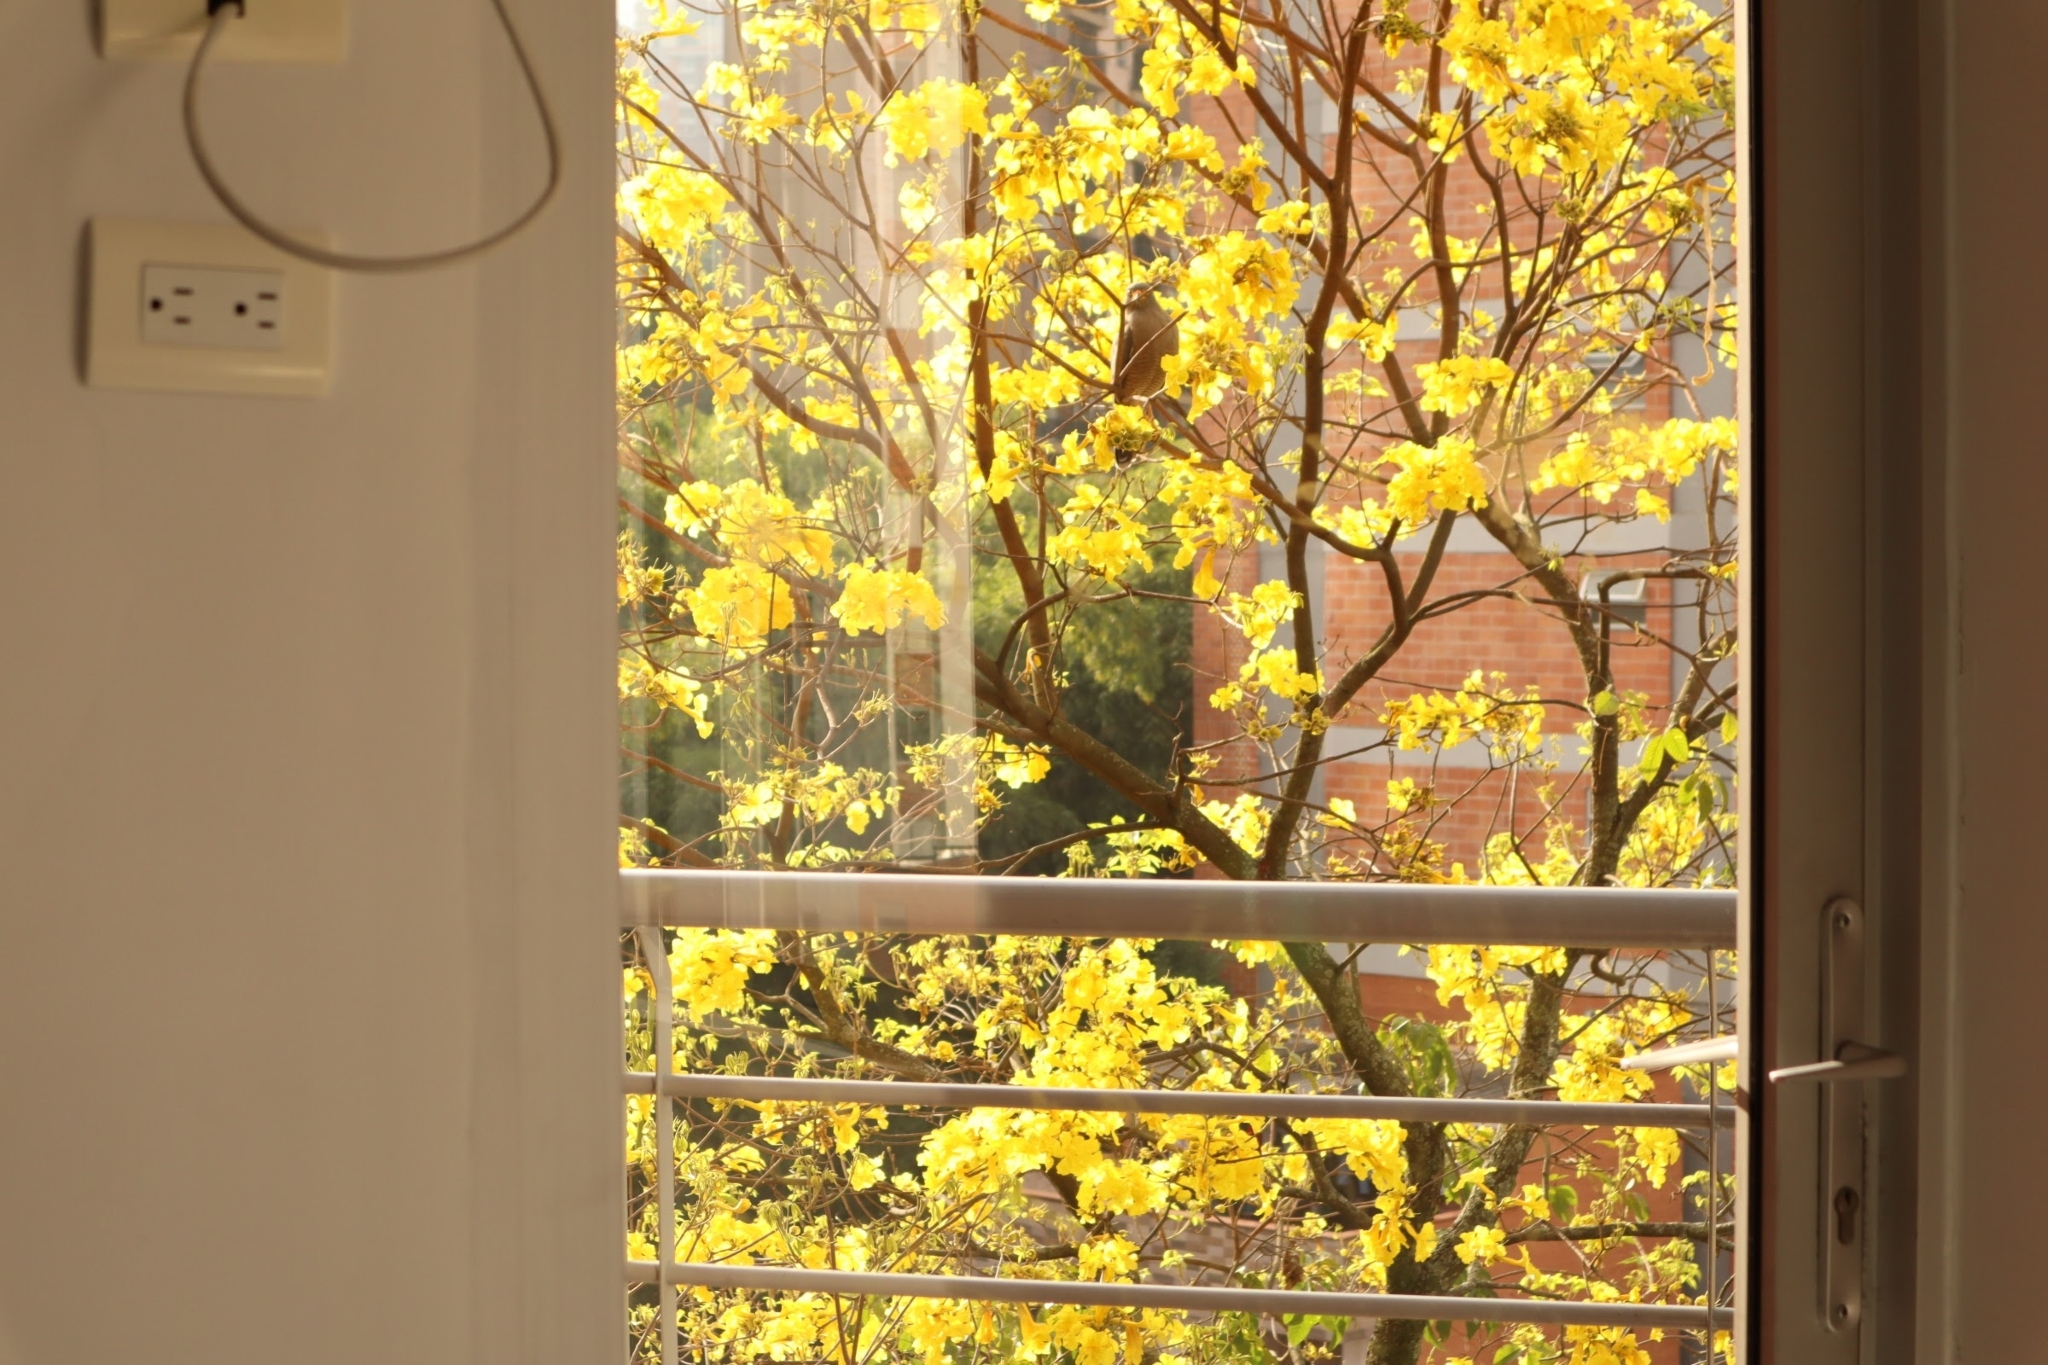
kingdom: Animalia
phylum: Chordata
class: Aves
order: Accipitriformes
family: Accipitridae
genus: Rupornis
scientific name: Rupornis magnirostris
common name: Roadside hawk
